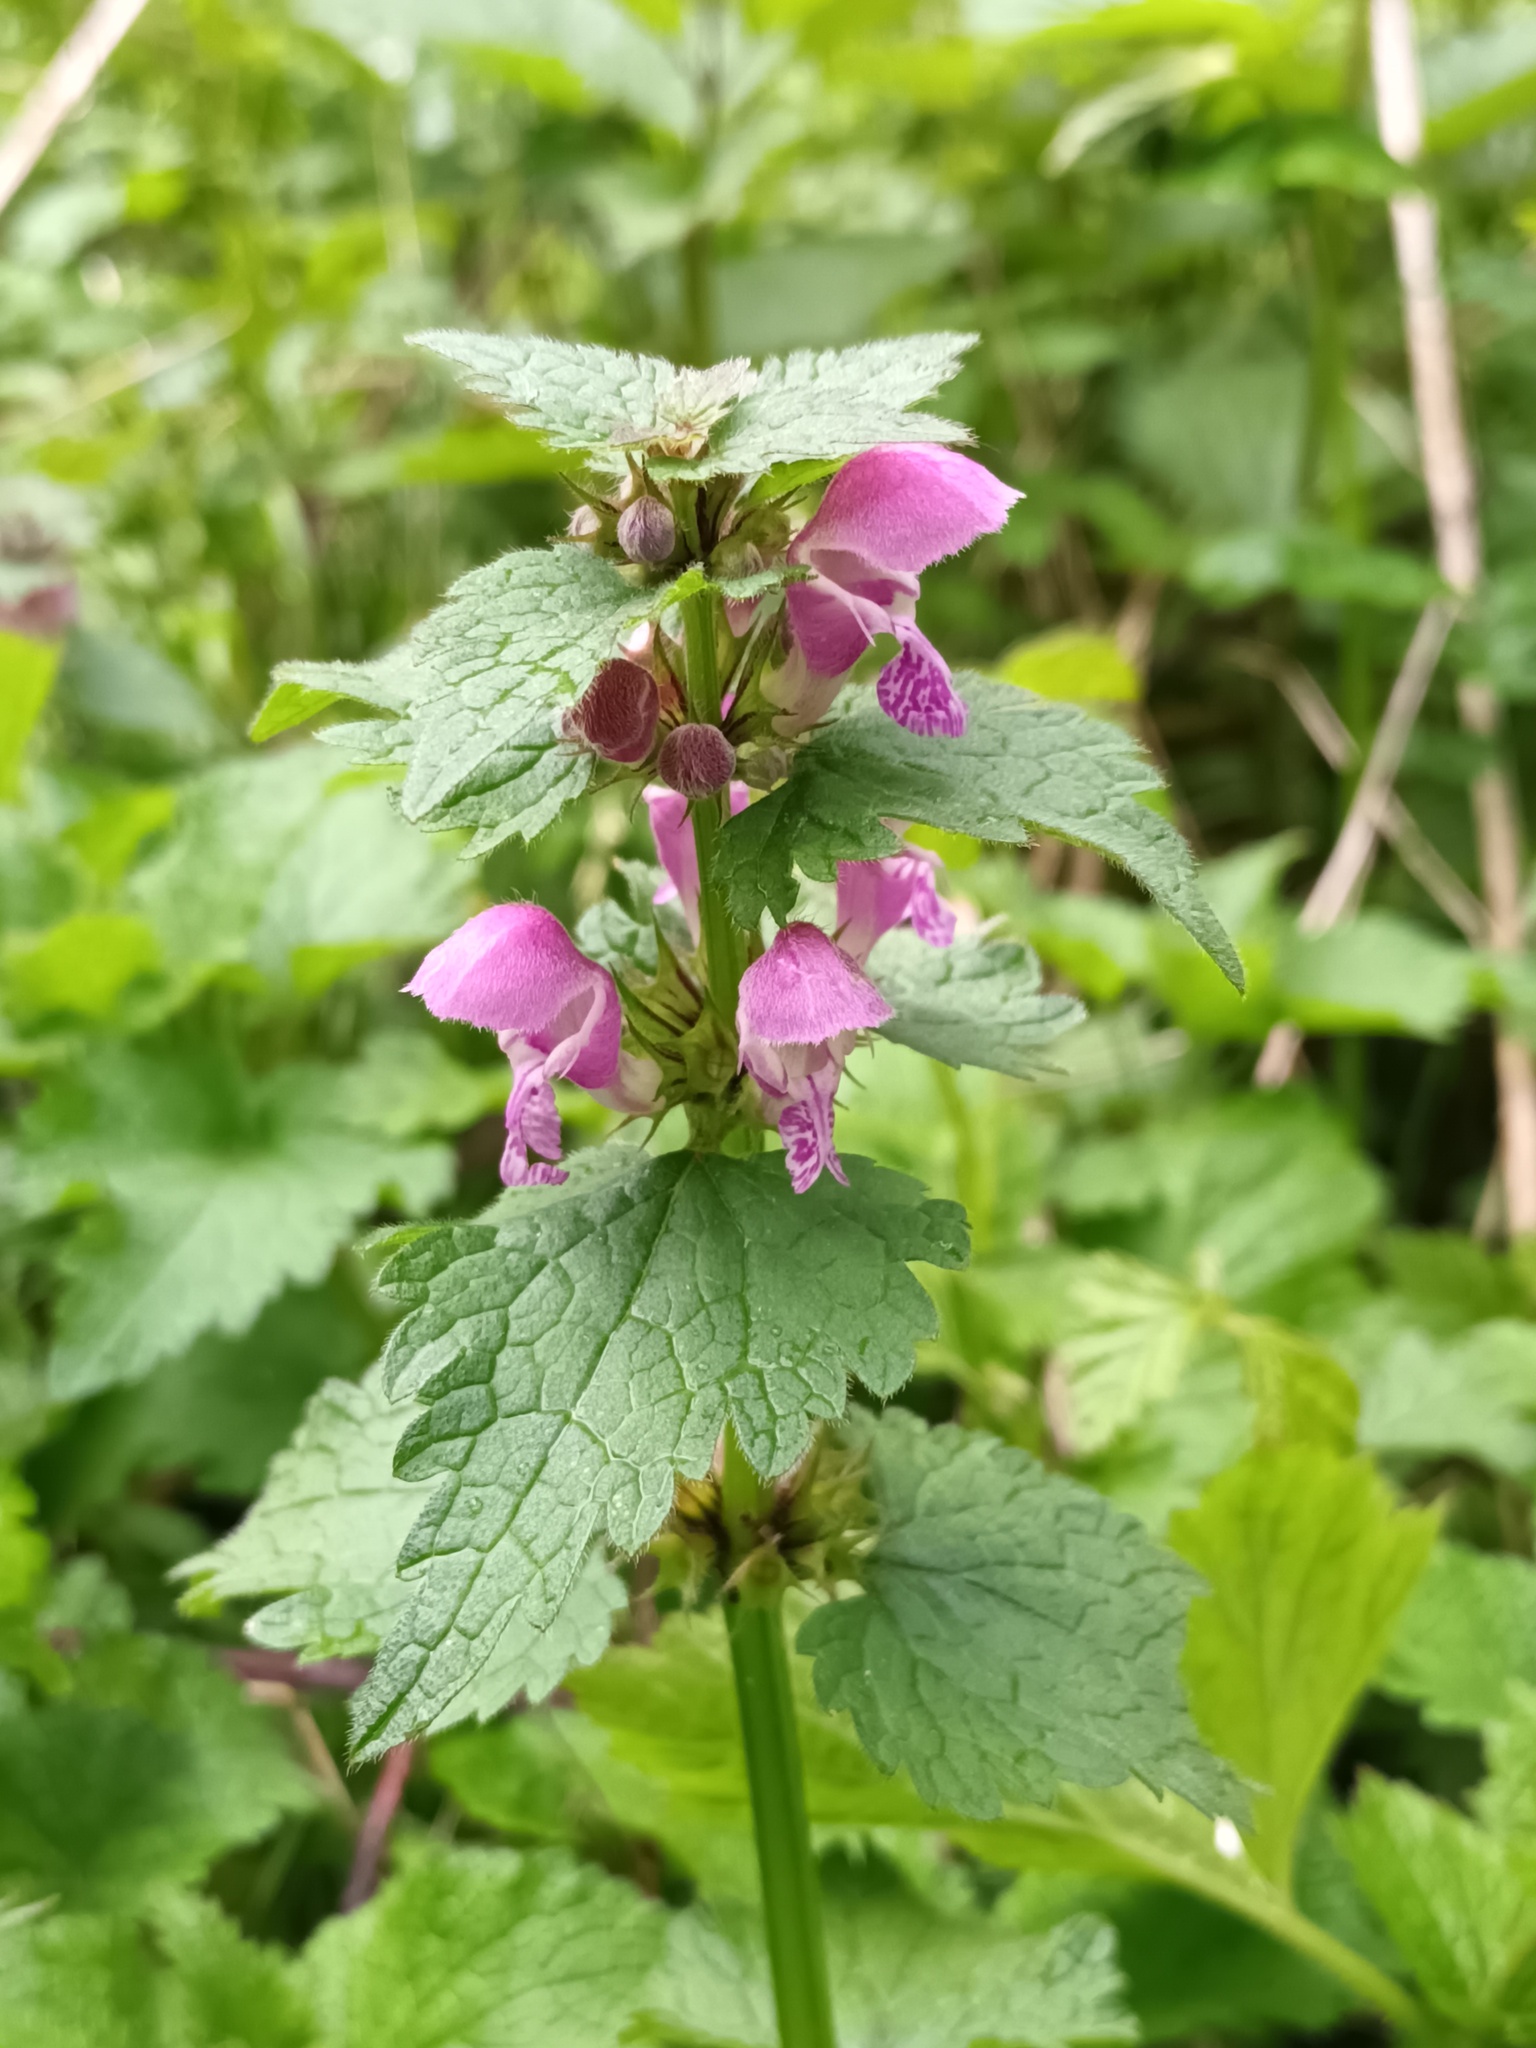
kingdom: Plantae
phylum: Tracheophyta
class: Magnoliopsida
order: Lamiales
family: Lamiaceae
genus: Lamium
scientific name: Lamium maculatum
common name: Spotted dead-nettle
